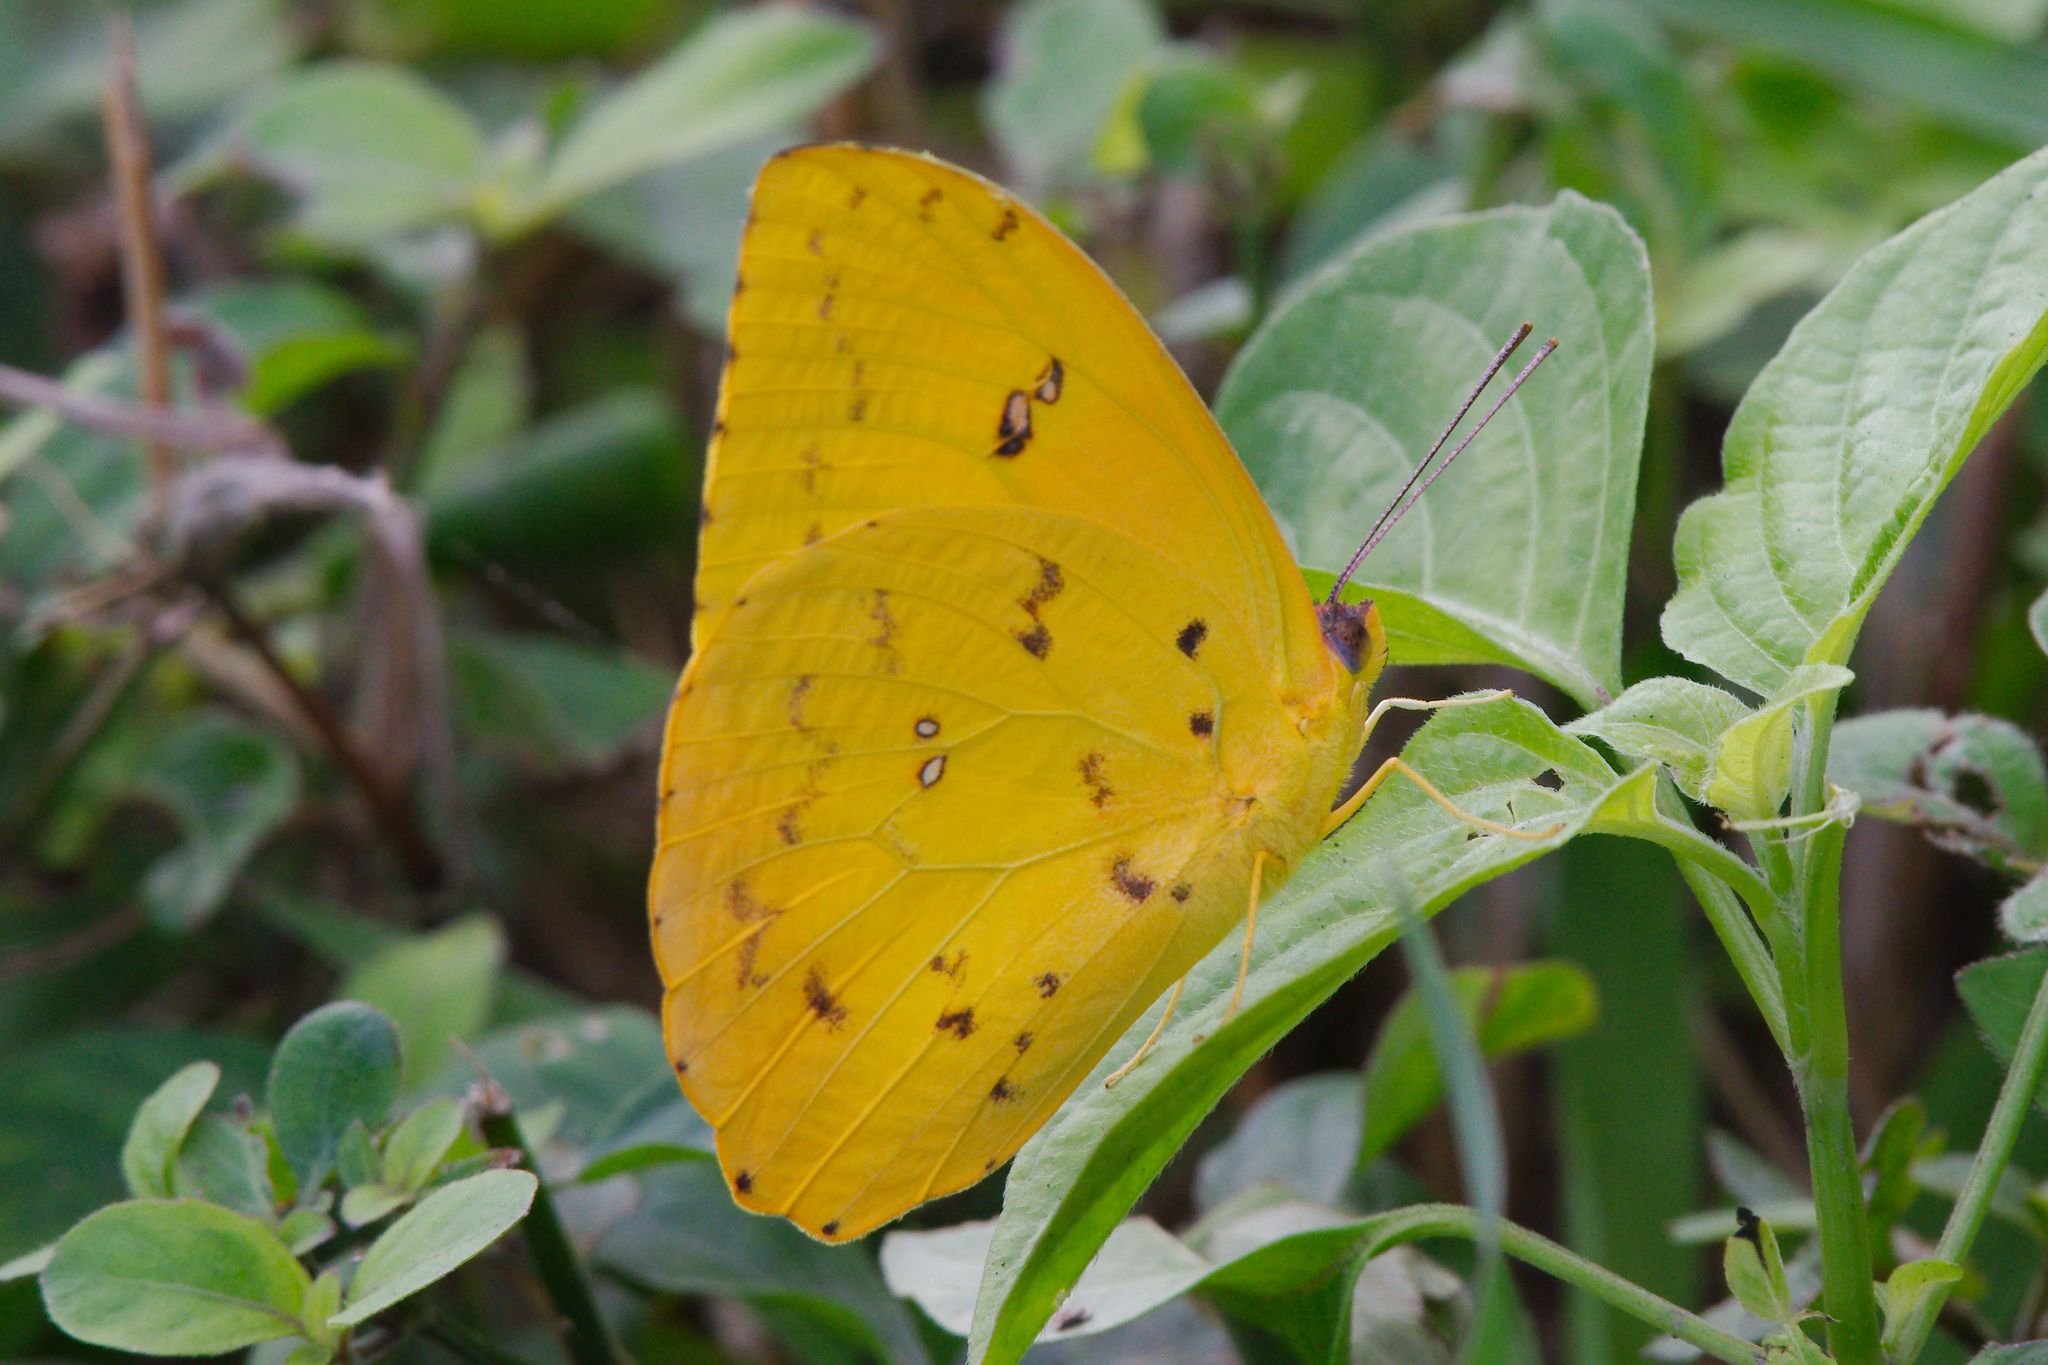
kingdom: Animalia
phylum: Arthropoda
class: Insecta
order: Lepidoptera
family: Pieridae
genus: Phoebis
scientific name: Phoebis philea
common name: Orange-barred giant sulphur
